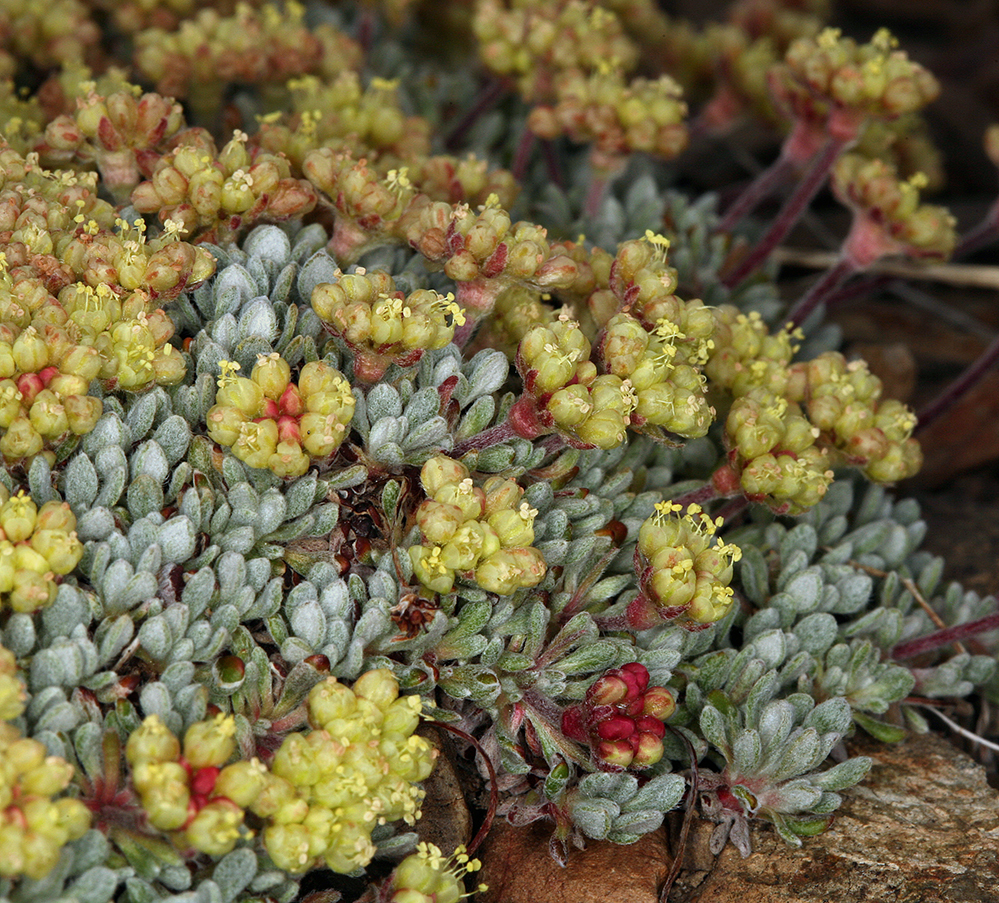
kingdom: Plantae
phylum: Tracheophyta
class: Magnoliopsida
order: Caryophyllales
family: Polygonaceae
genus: Eriogonum
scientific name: Eriogonum caespitosum
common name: Matted wild buckwheat
